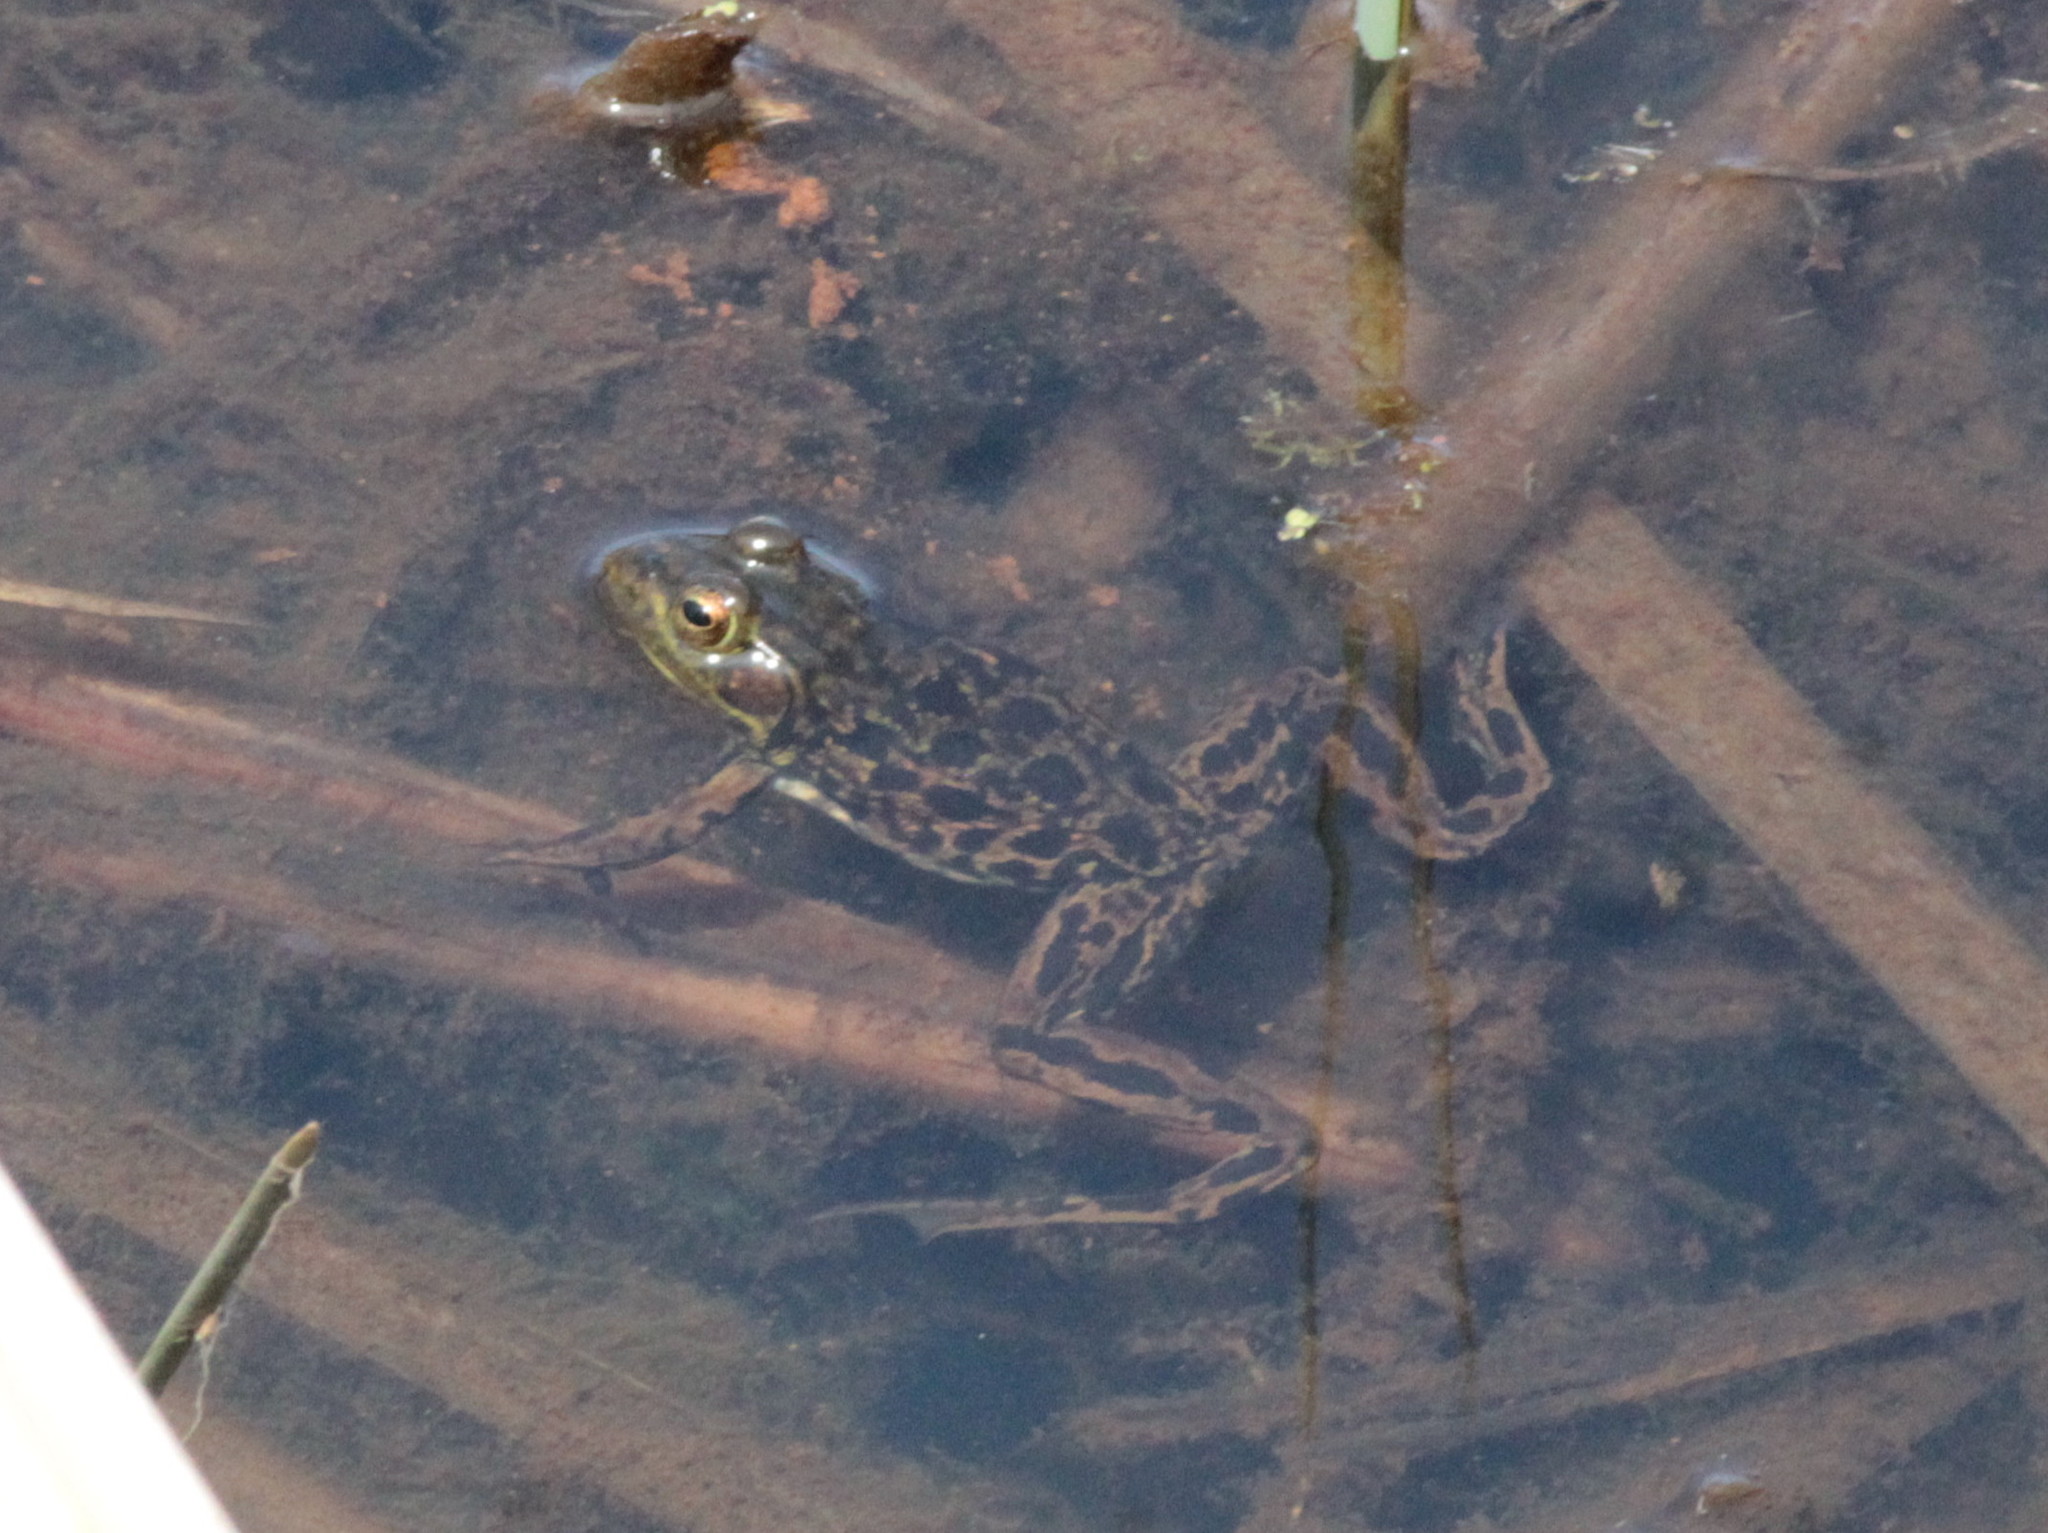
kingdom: Animalia
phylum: Chordata
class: Amphibia
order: Anura
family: Ranidae
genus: Lithobates
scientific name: Lithobates catesbeianus
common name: American bullfrog
